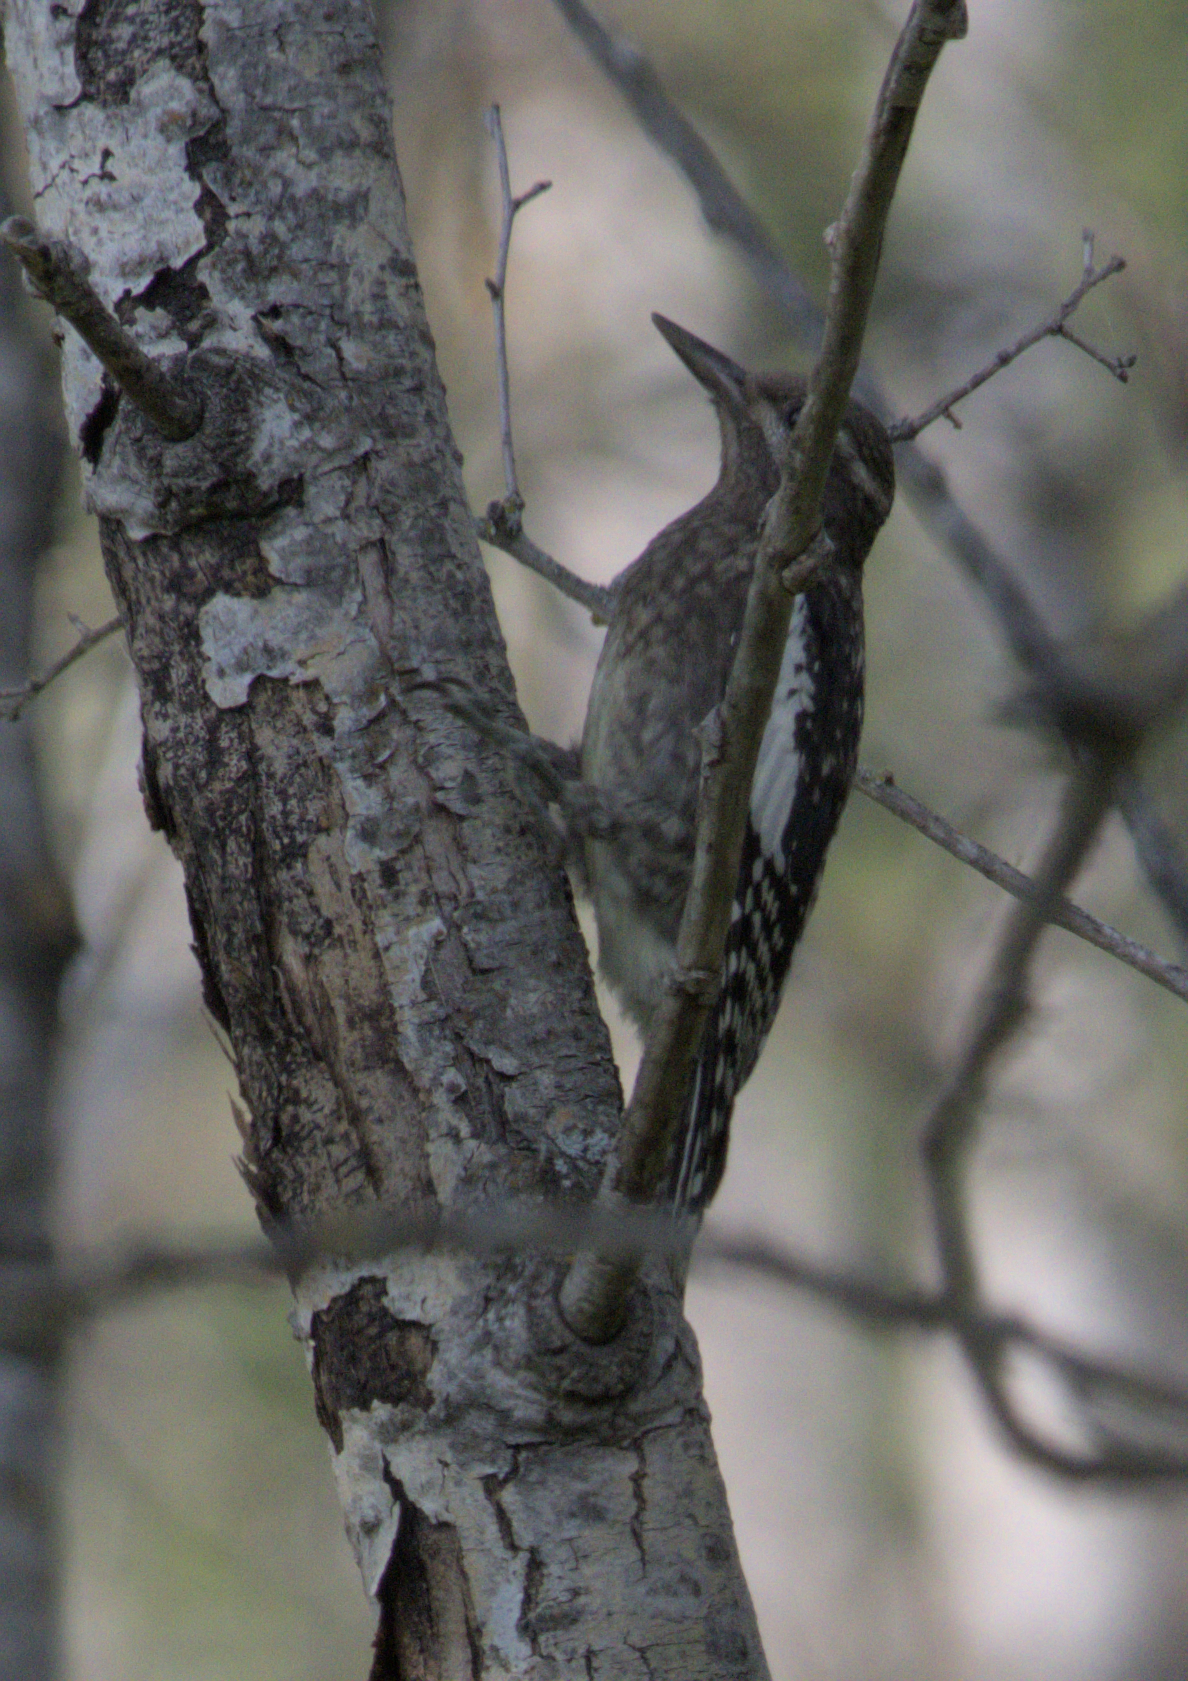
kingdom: Animalia
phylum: Chordata
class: Aves
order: Piciformes
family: Picidae
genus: Sphyrapicus
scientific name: Sphyrapicus varius
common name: Yellow-bellied sapsucker
